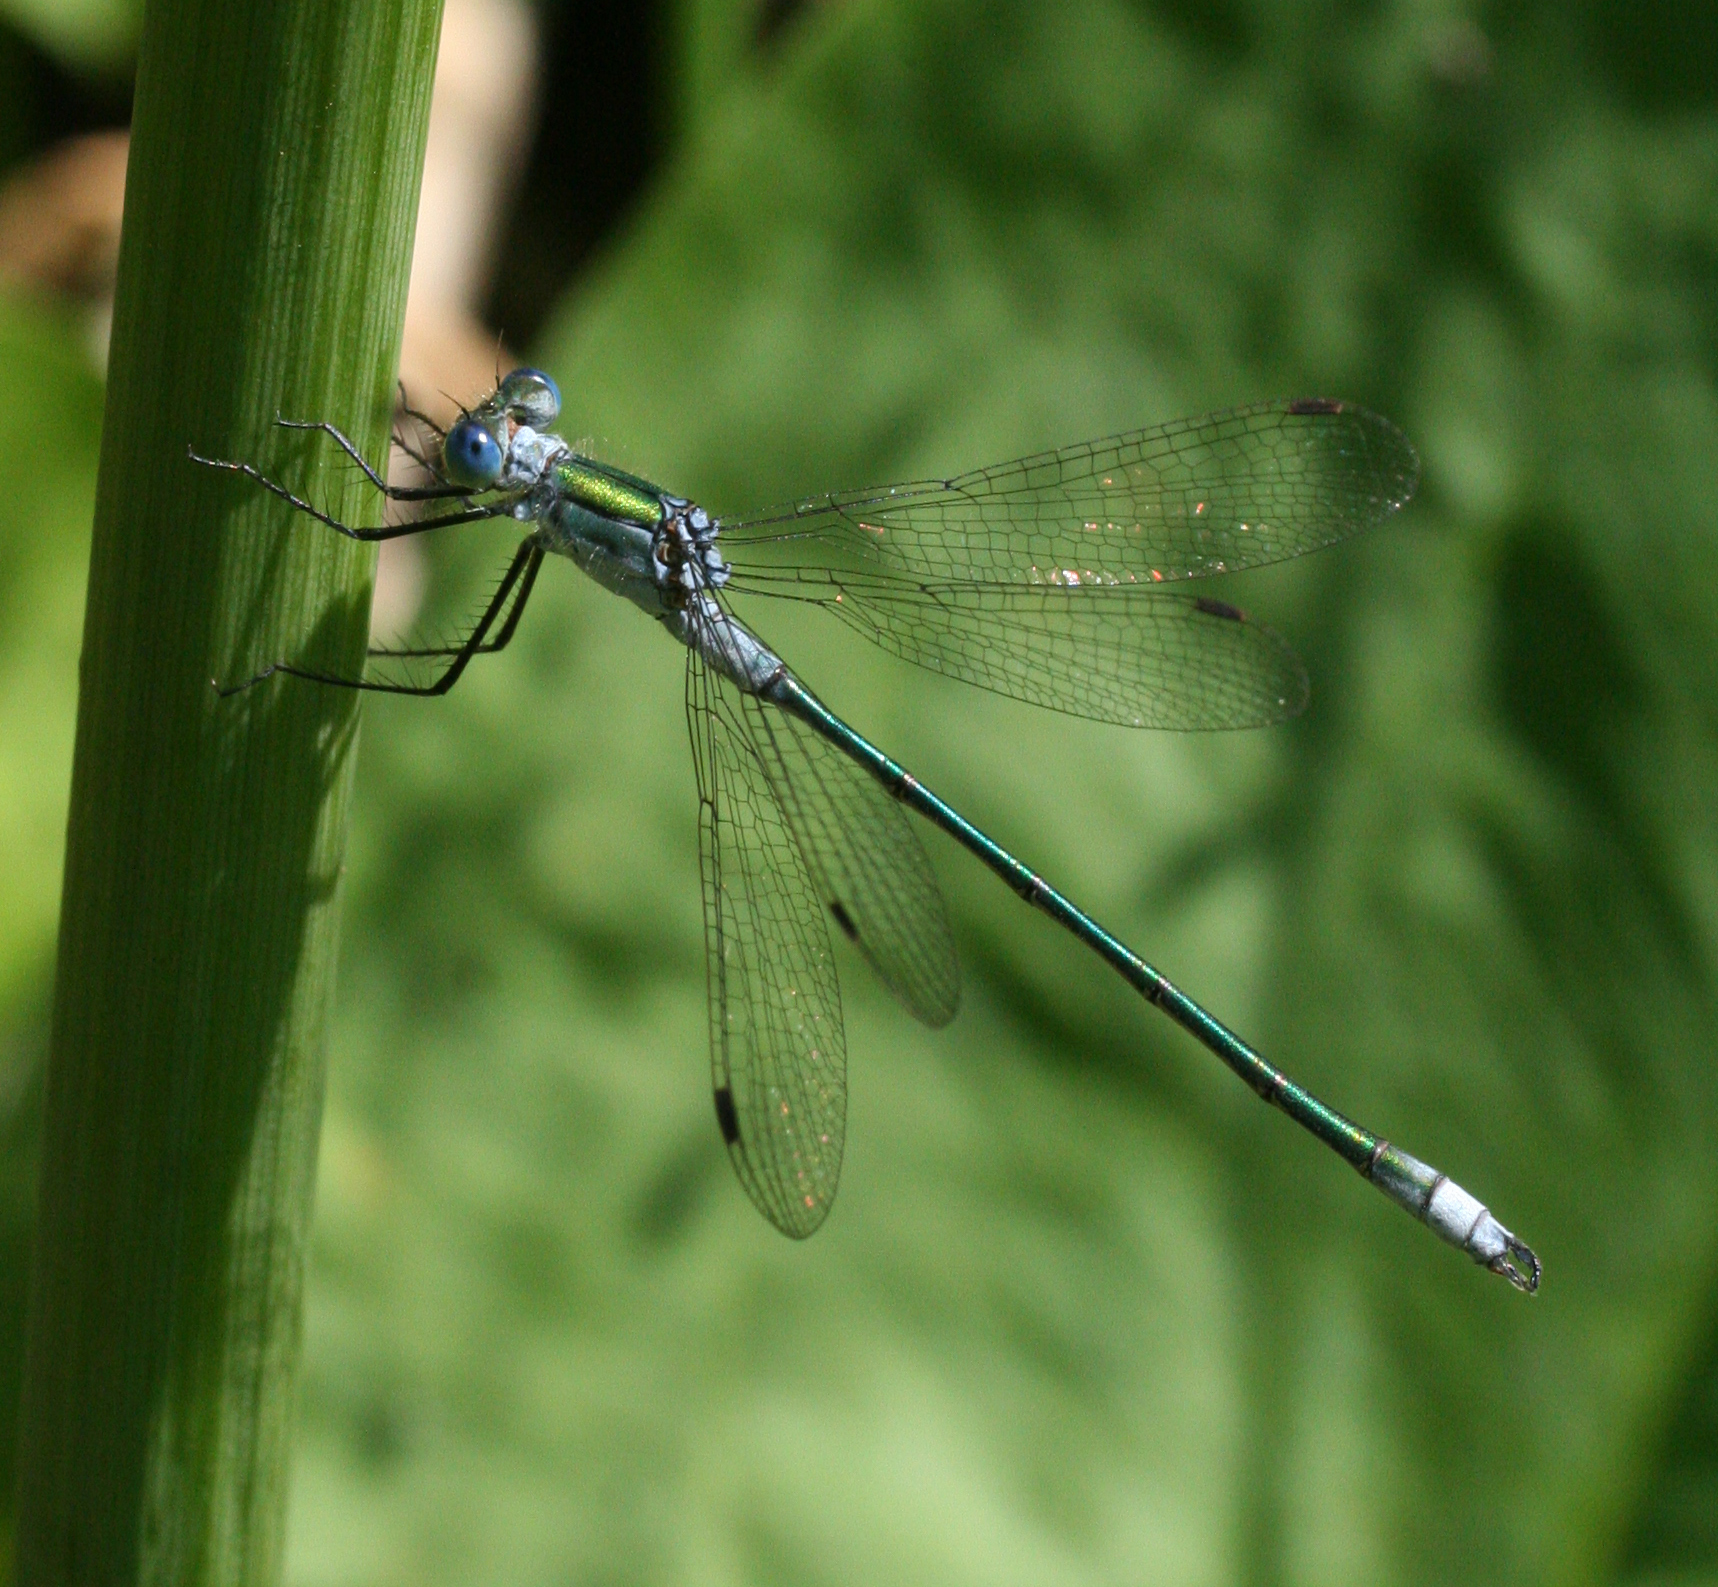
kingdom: Animalia
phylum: Arthropoda
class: Insecta
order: Odonata
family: Lestidae
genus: Lestes
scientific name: Lestes sponsa
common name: Common spreadwing
